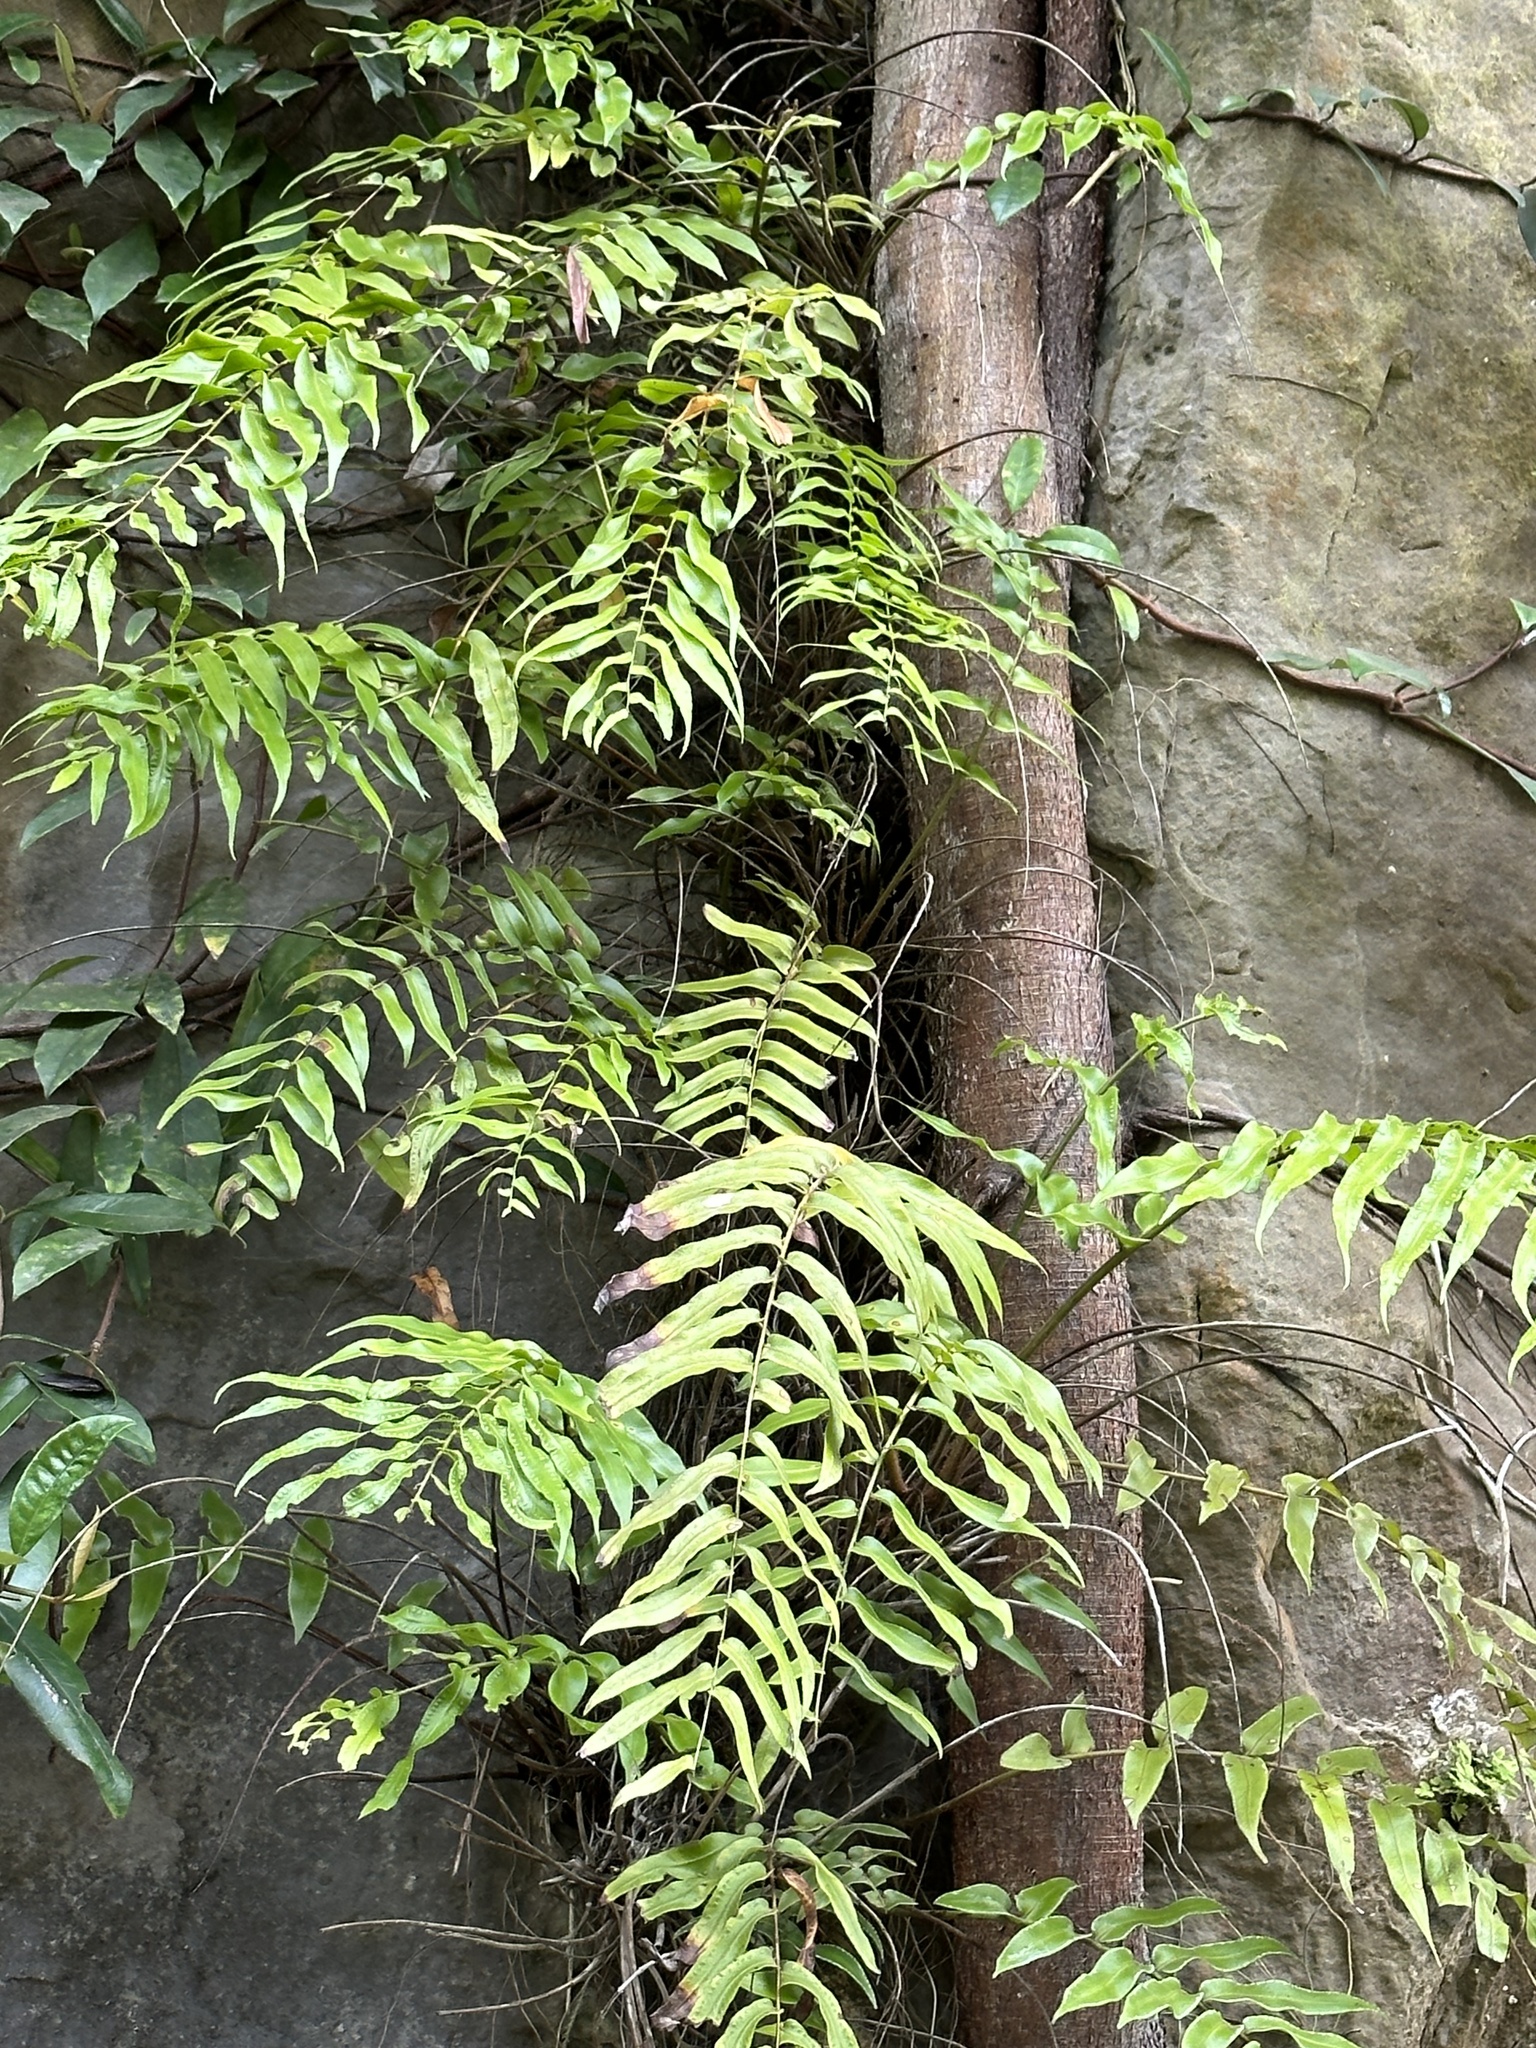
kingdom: Plantae
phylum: Tracheophyta
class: Polypodiopsida
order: Polypodiales
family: Nephrolepidaceae
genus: Nephrolepis
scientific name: Nephrolepis biserrata
